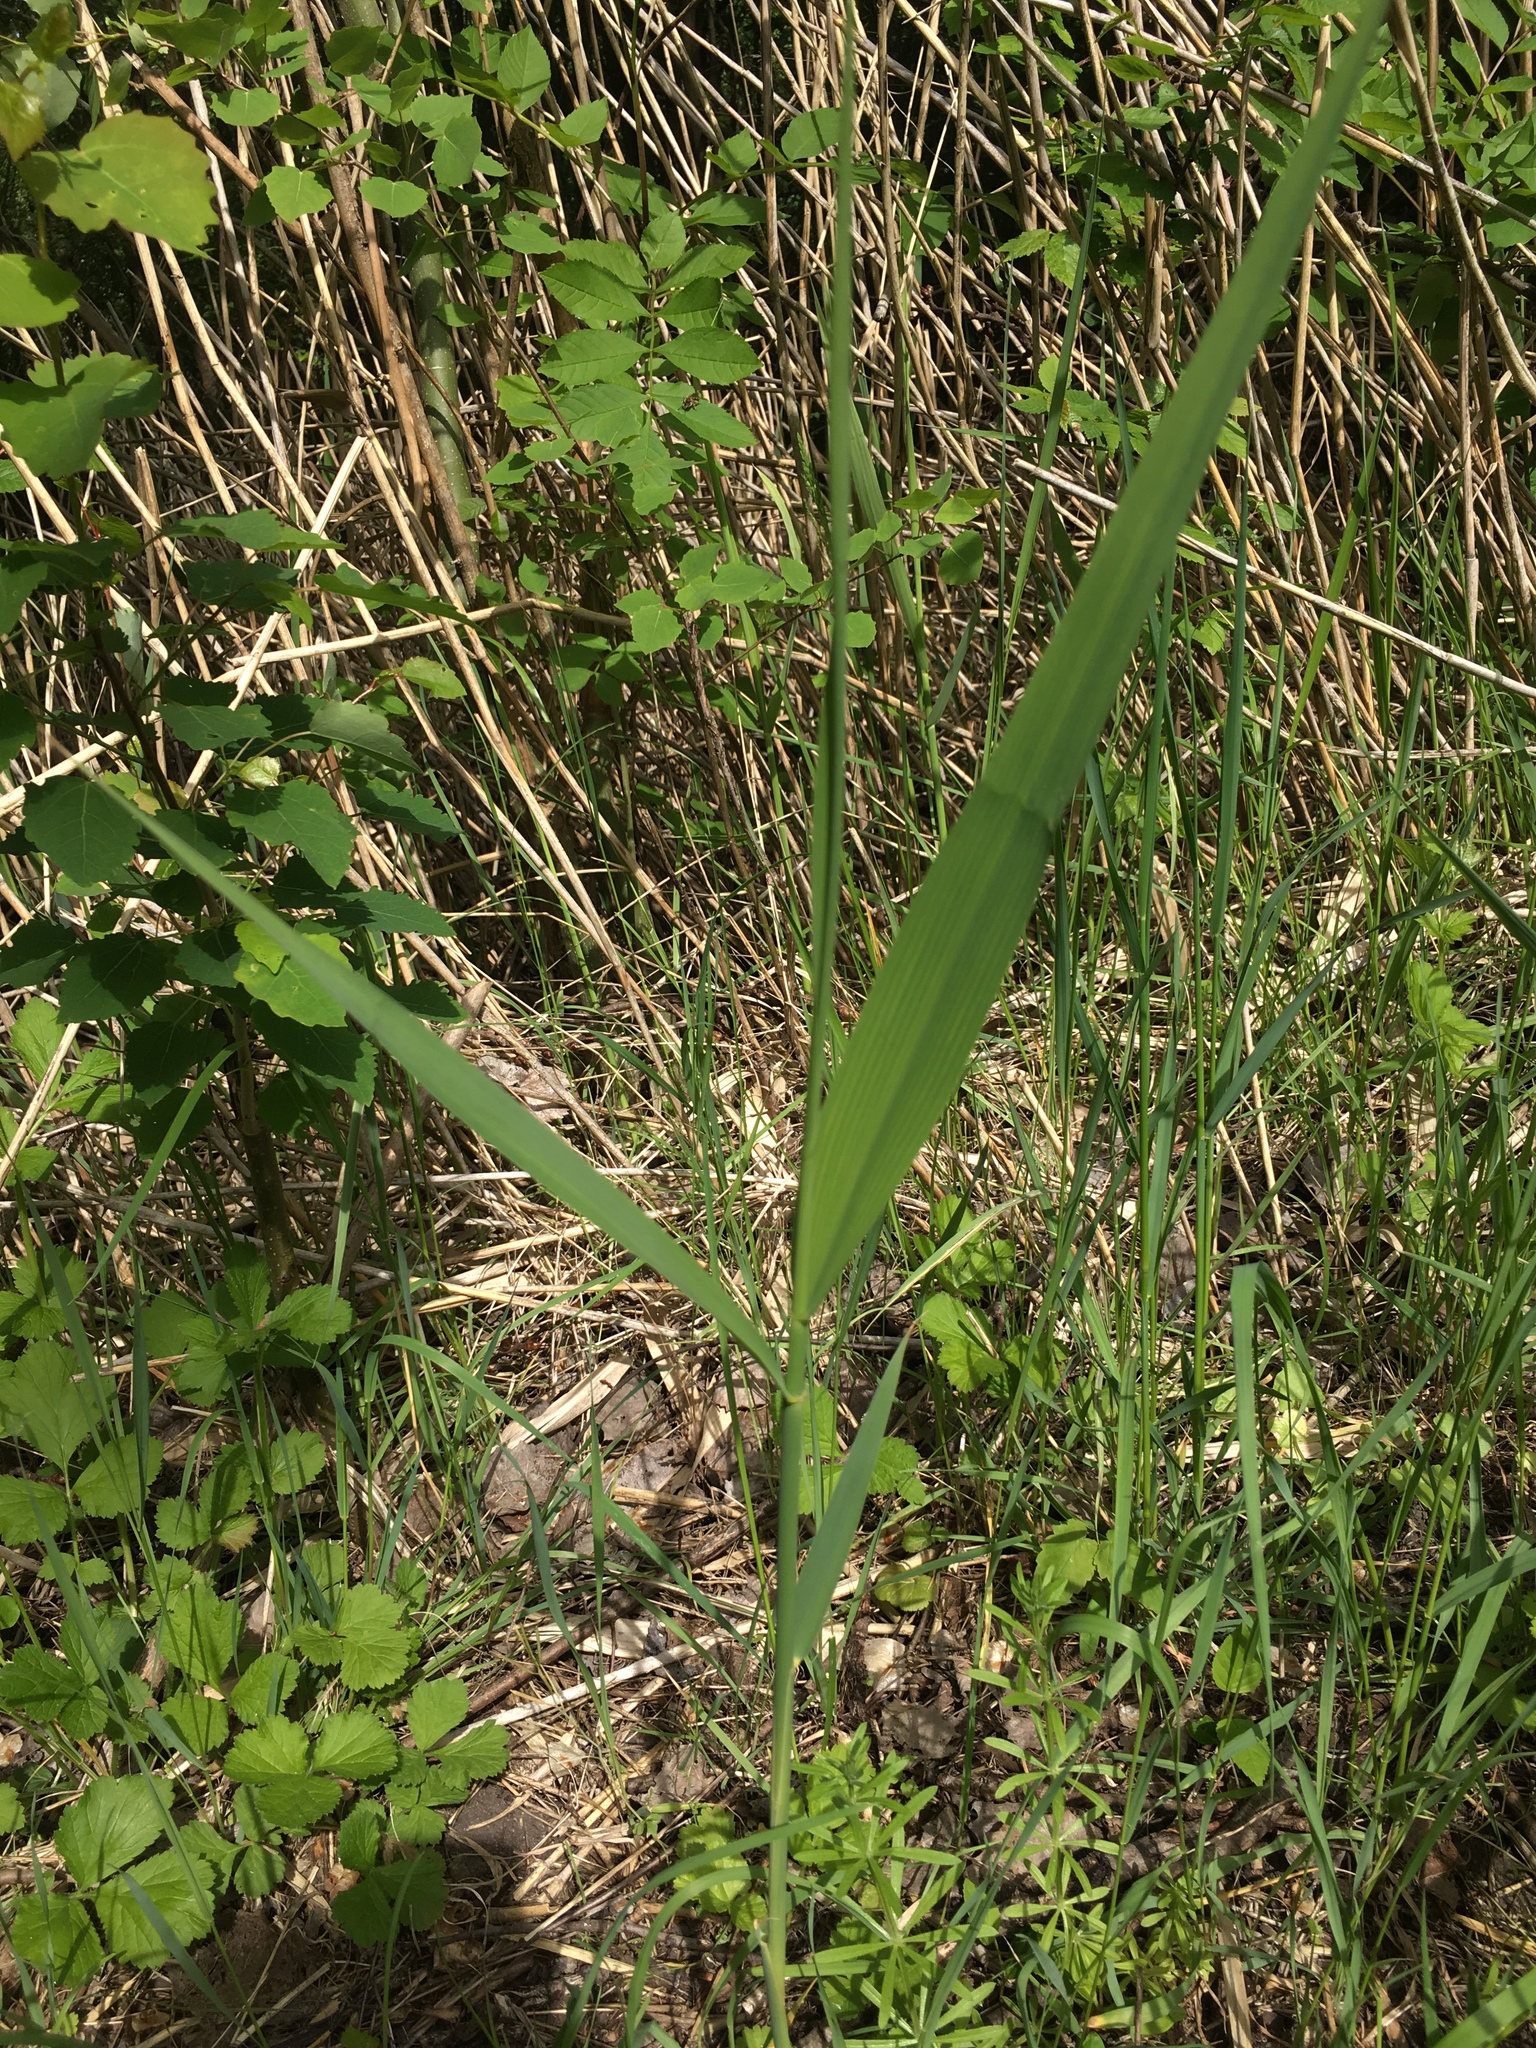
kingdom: Plantae
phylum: Tracheophyta
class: Liliopsida
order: Poales
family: Poaceae
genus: Phragmites
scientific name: Phragmites australis
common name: Common reed
